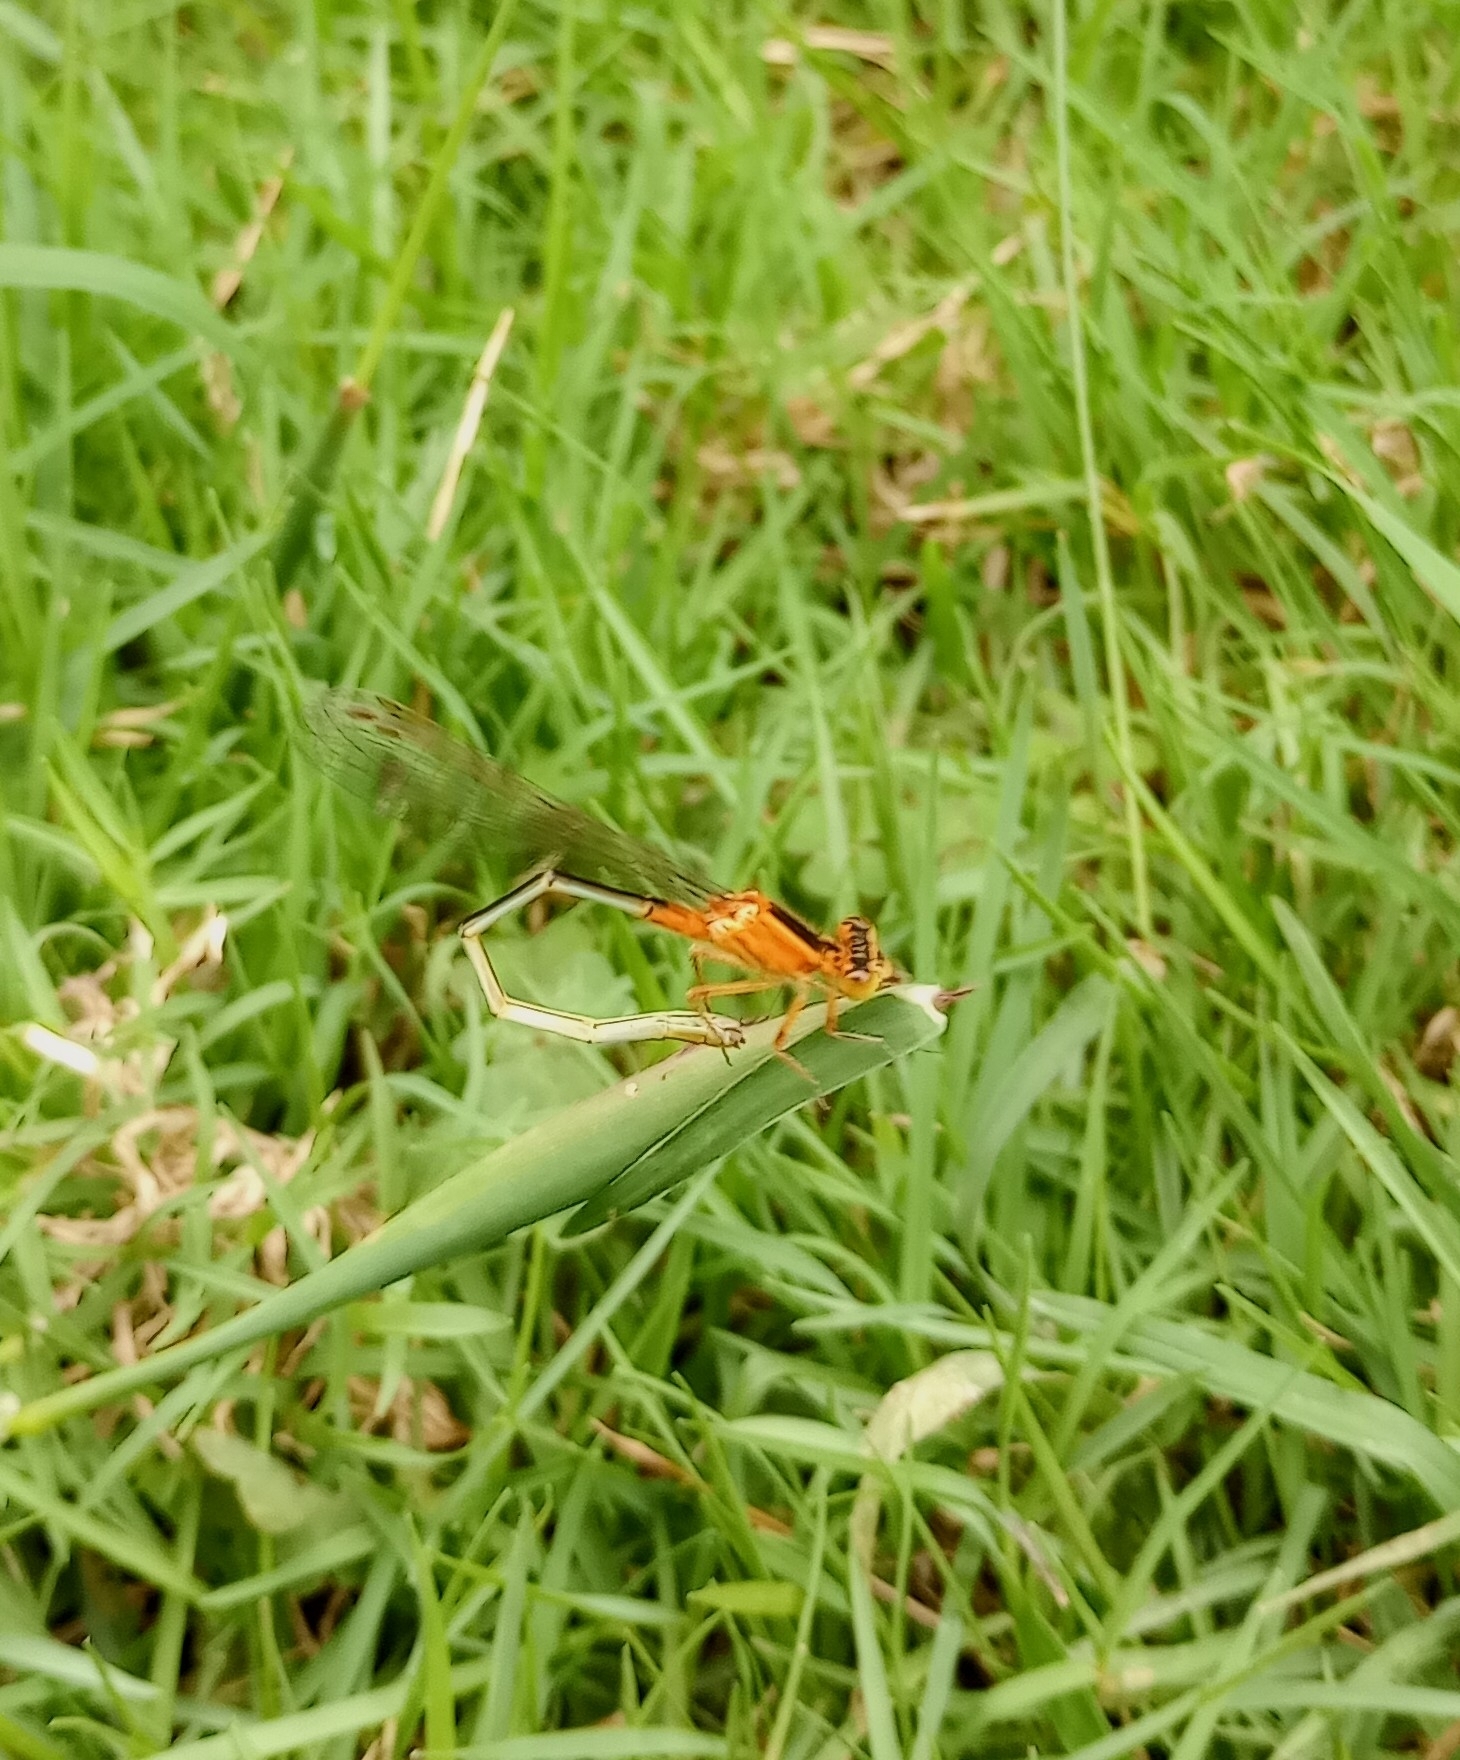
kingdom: Animalia
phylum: Arthropoda
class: Insecta
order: Odonata
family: Coenagrionidae
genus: Ischnura
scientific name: Ischnura senegalensis
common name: Tropical bluetail
